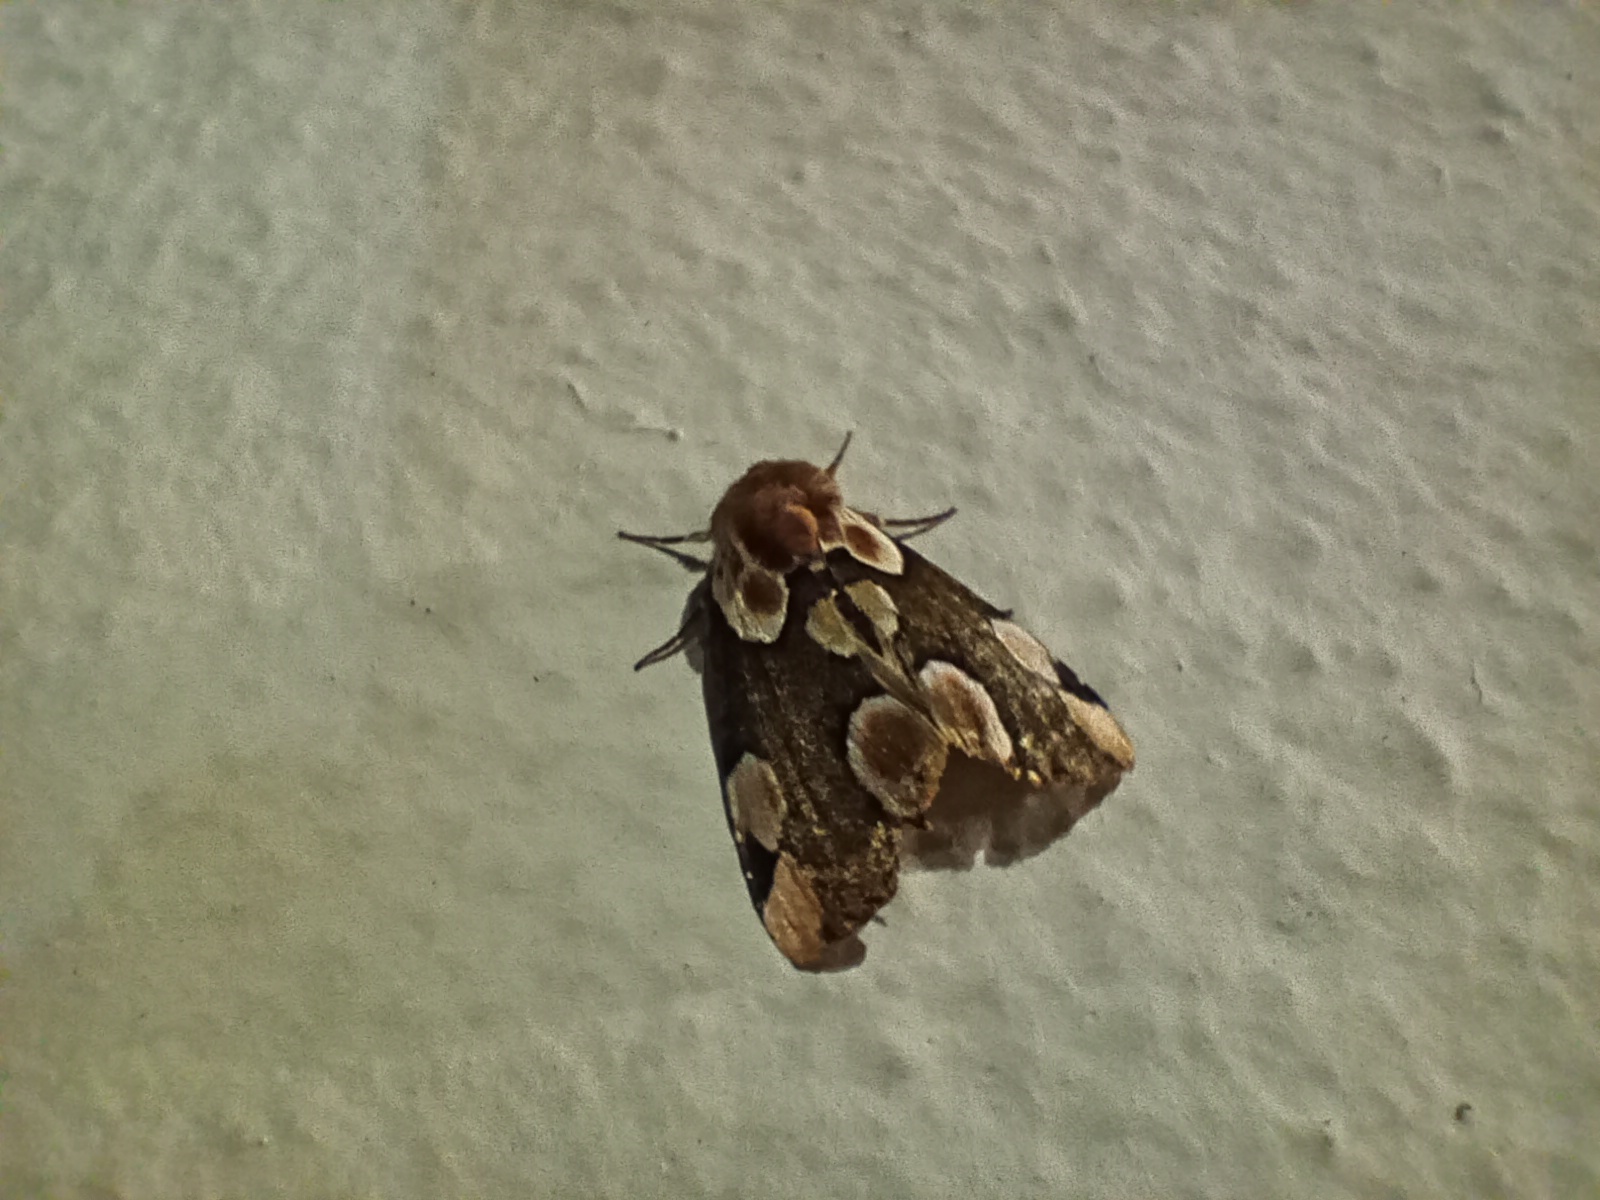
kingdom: Animalia
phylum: Arthropoda
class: Insecta
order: Lepidoptera
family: Drepanidae
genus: Thyatira
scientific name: Thyatira batis
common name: Peach blossom
